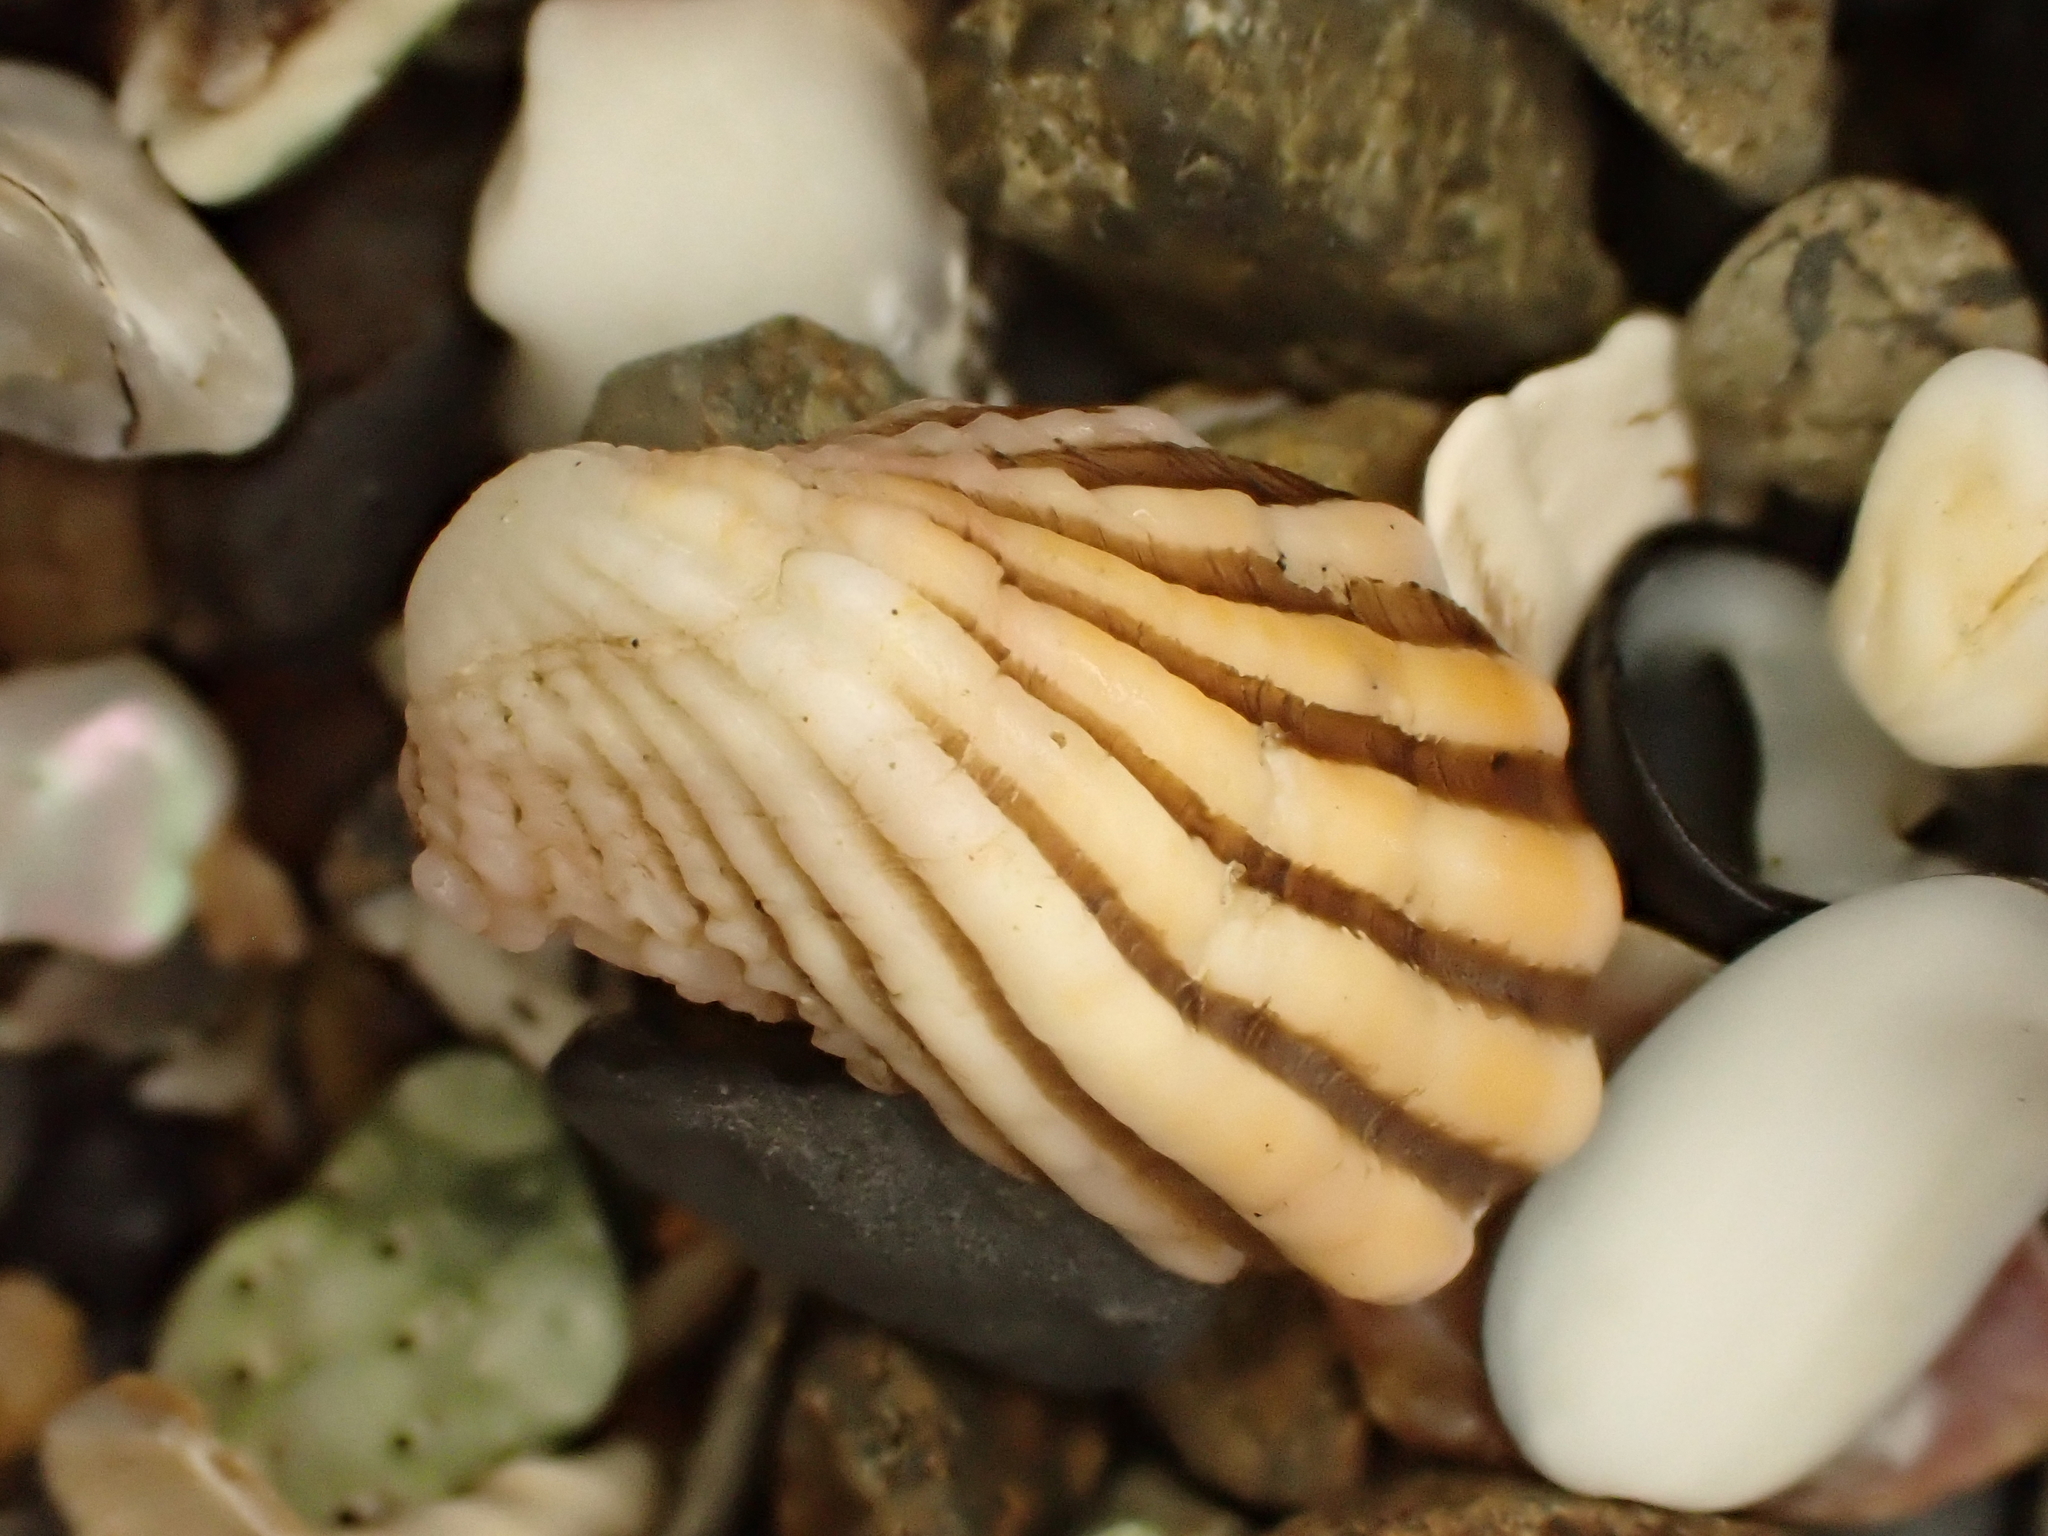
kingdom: Animalia
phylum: Mollusca
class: Bivalvia
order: Carditida
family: Carditidae
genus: Cardita
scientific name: Cardita distorta
